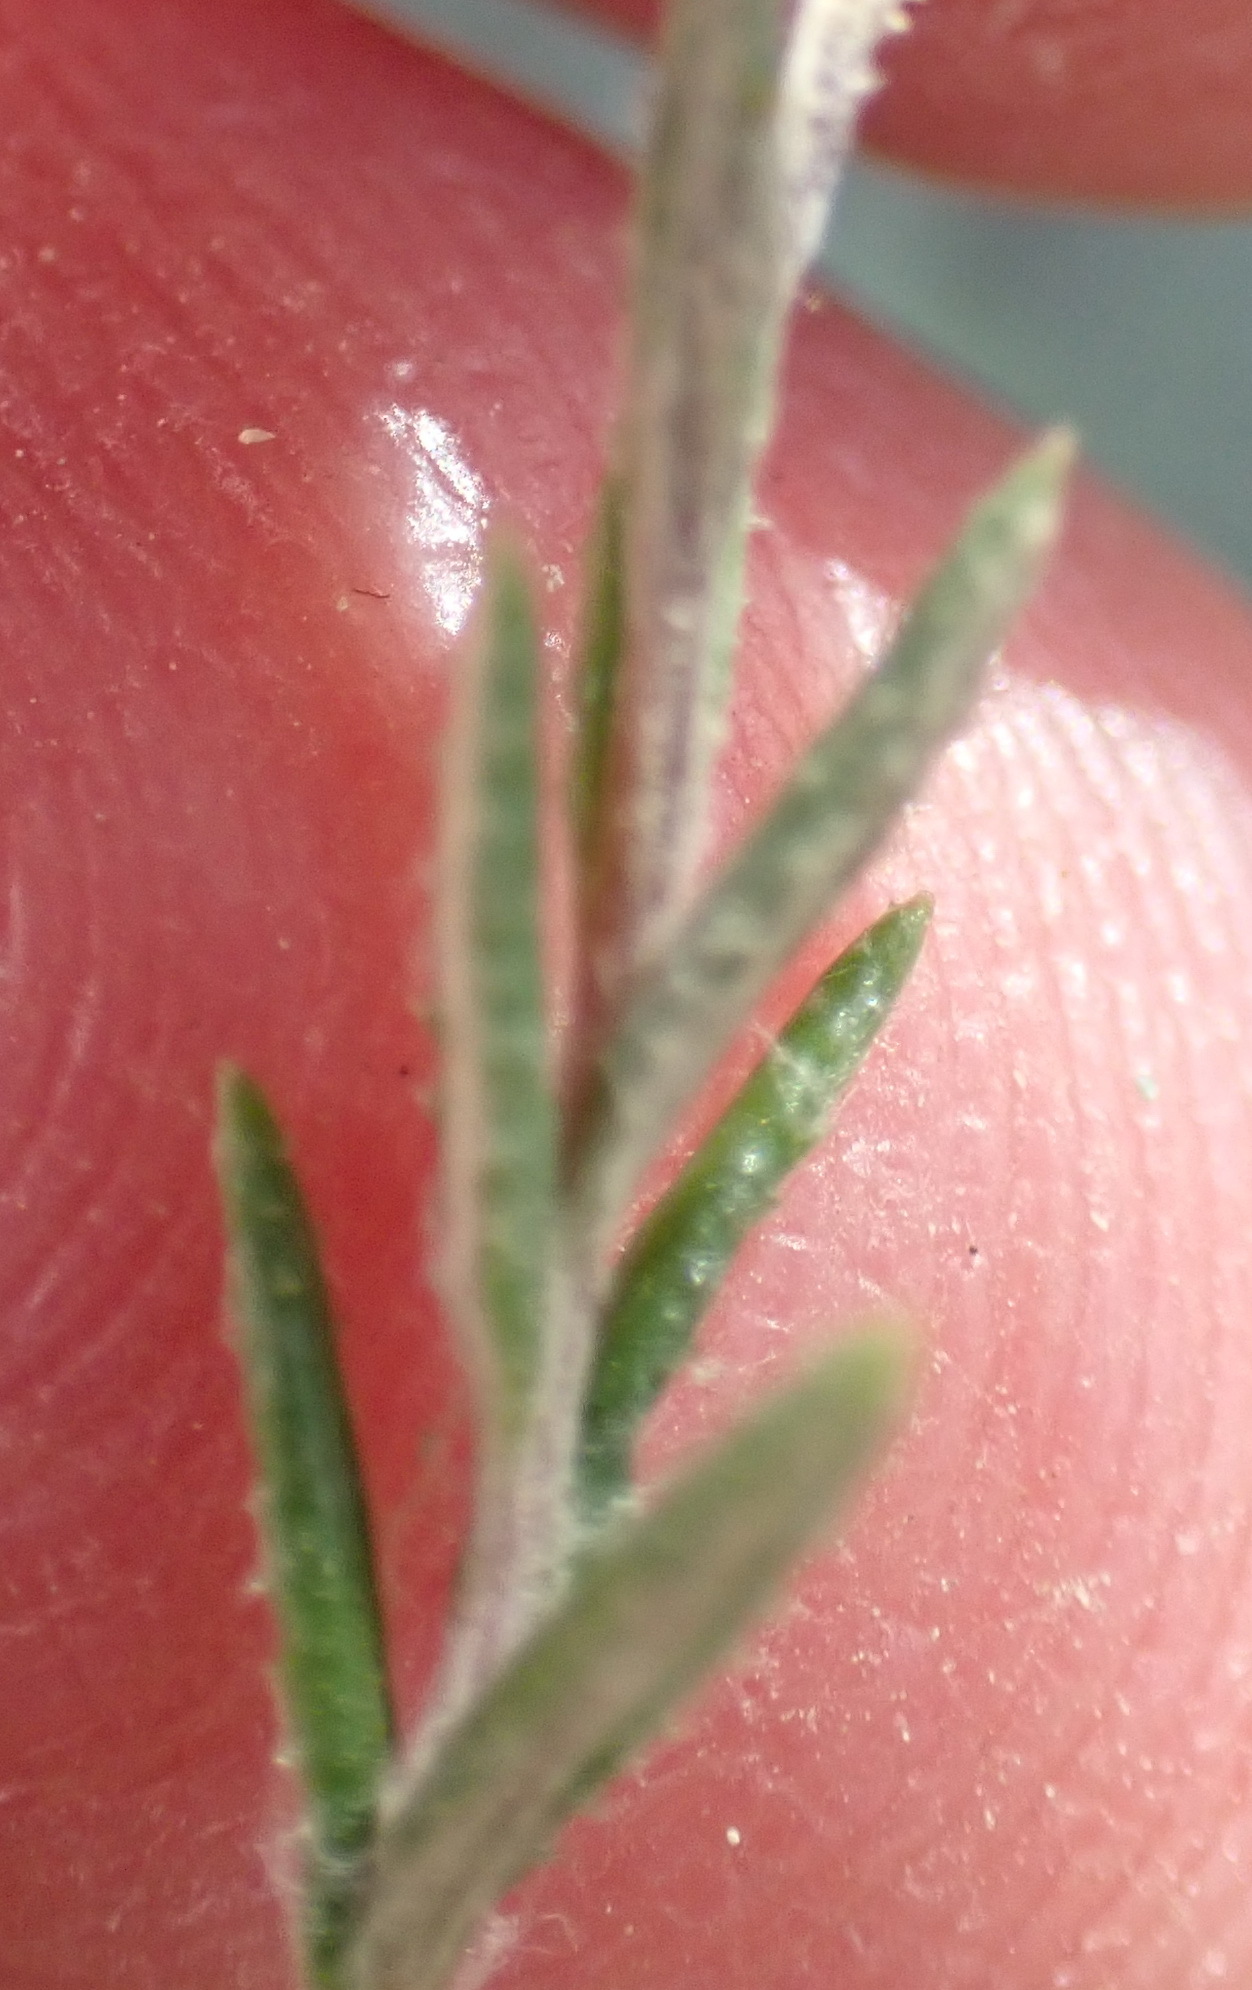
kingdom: Plantae
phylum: Tracheophyta
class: Magnoliopsida
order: Asterales
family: Asteraceae
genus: Athrixia
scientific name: Athrixia phylicoides
